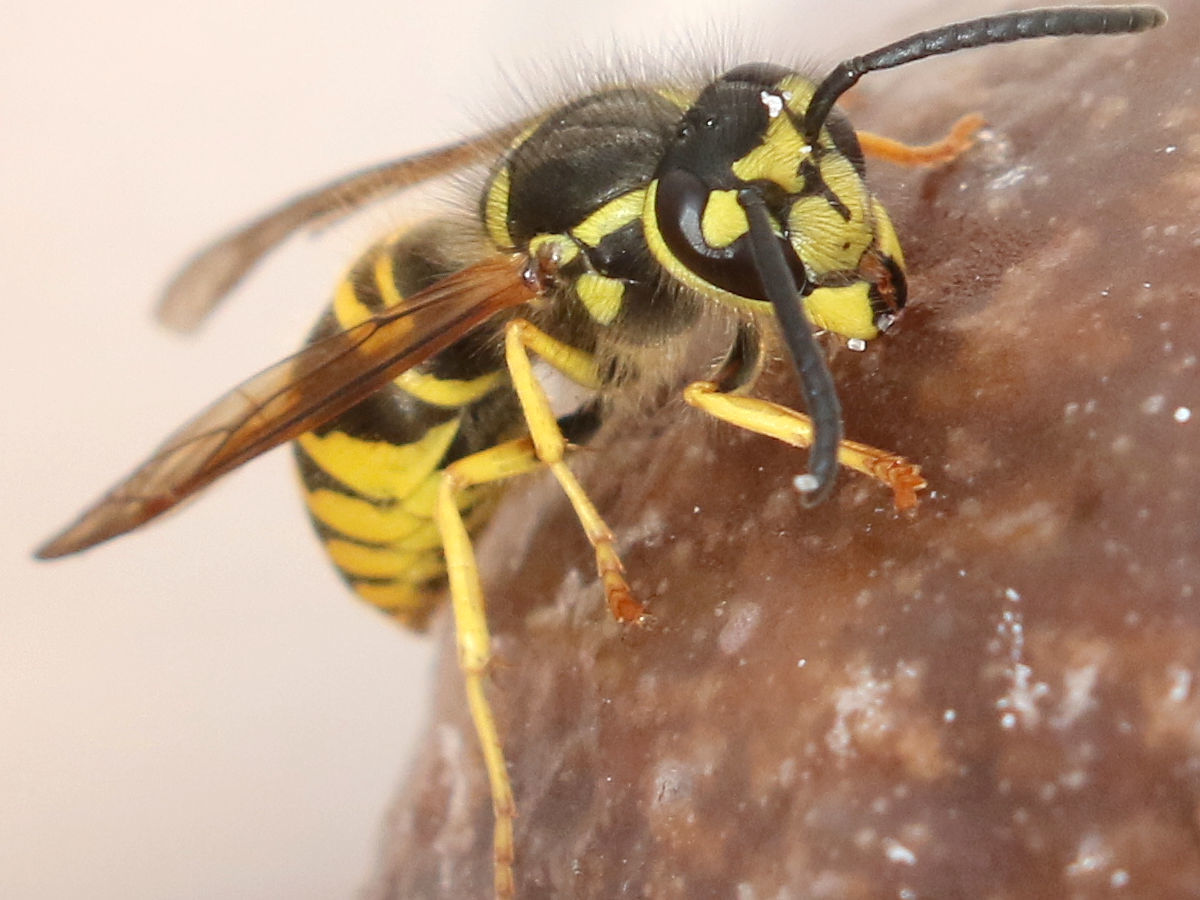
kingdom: Animalia
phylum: Arthropoda
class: Insecta
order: Hymenoptera
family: Vespidae
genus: Vespula
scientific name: Vespula maculifrons
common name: Eastern yellowjacket
